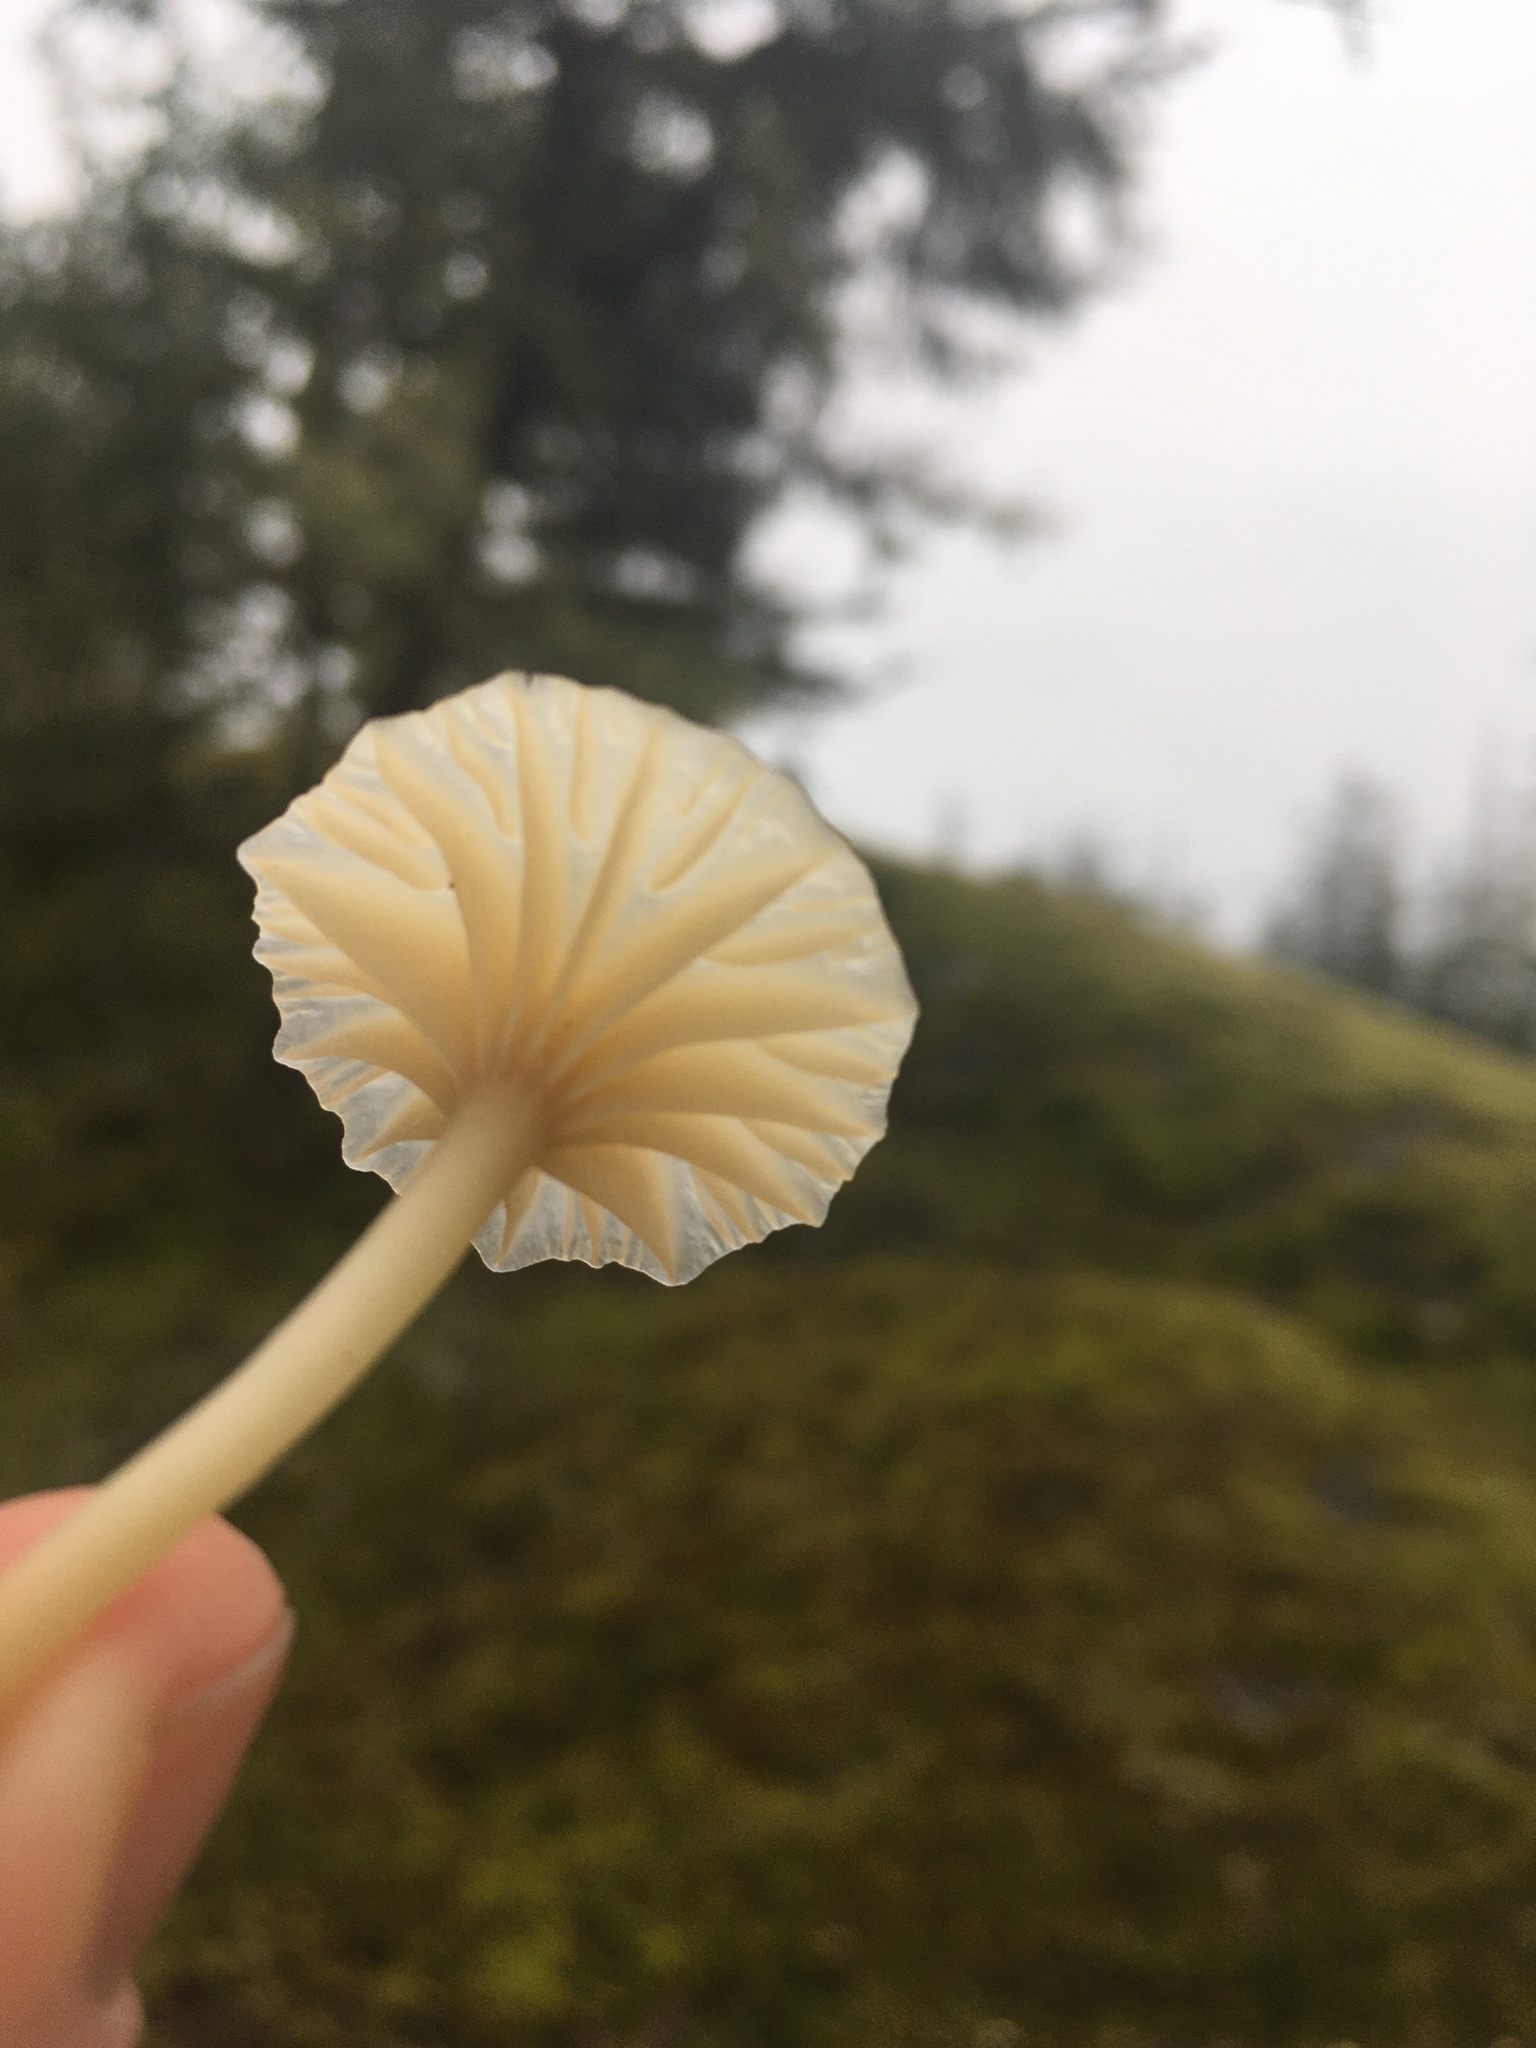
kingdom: Fungi
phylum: Basidiomycota
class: Agaricomycetes
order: Agaricales
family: Hygrophoraceae
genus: Lichenomphalia
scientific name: Lichenomphalia
